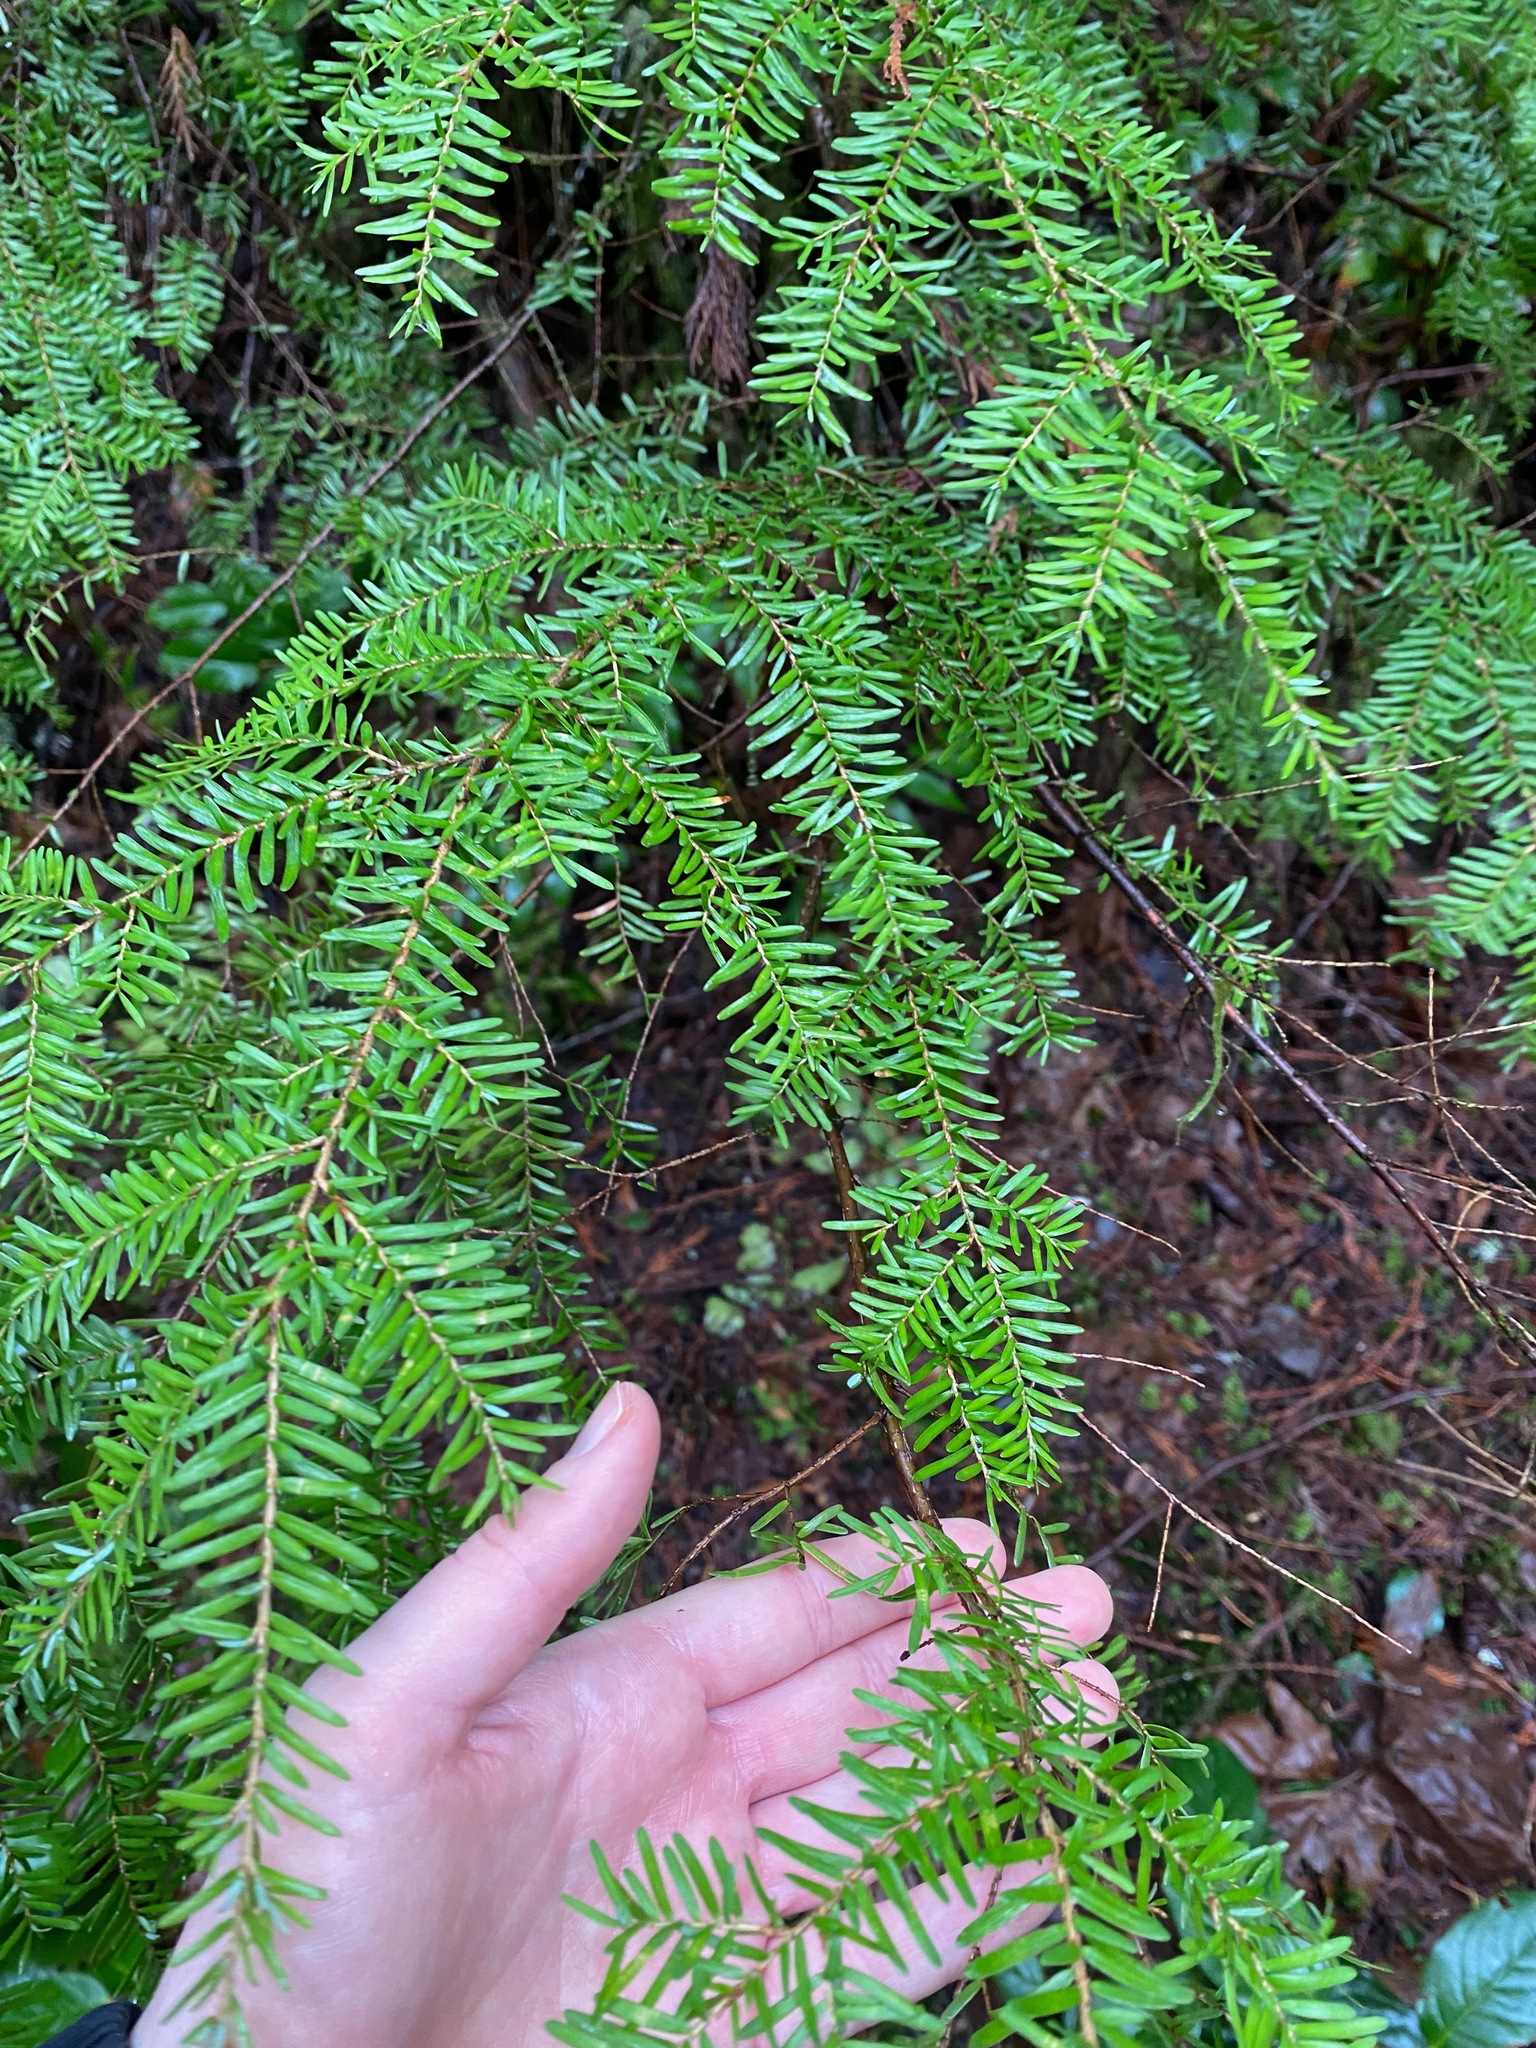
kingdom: Plantae
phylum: Tracheophyta
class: Pinopsida
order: Pinales
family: Pinaceae
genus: Tsuga
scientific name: Tsuga heterophylla
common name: Western hemlock
